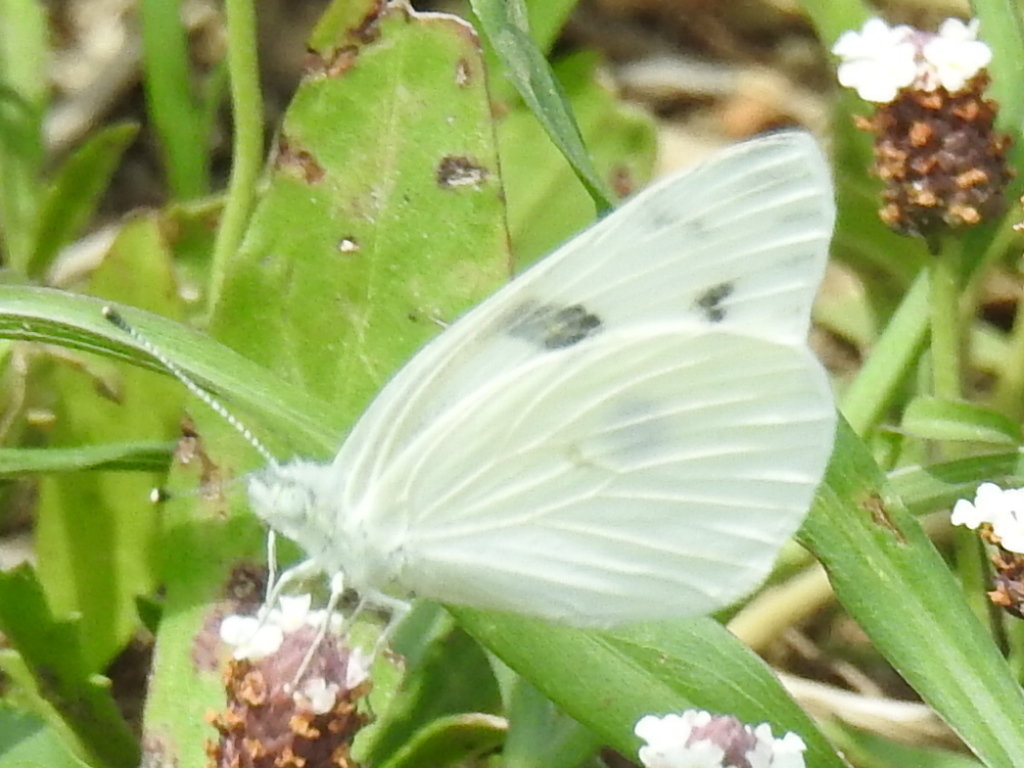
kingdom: Animalia
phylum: Arthropoda
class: Insecta
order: Lepidoptera
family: Pieridae
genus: Pontia
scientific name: Pontia protodice
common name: Checkered white
